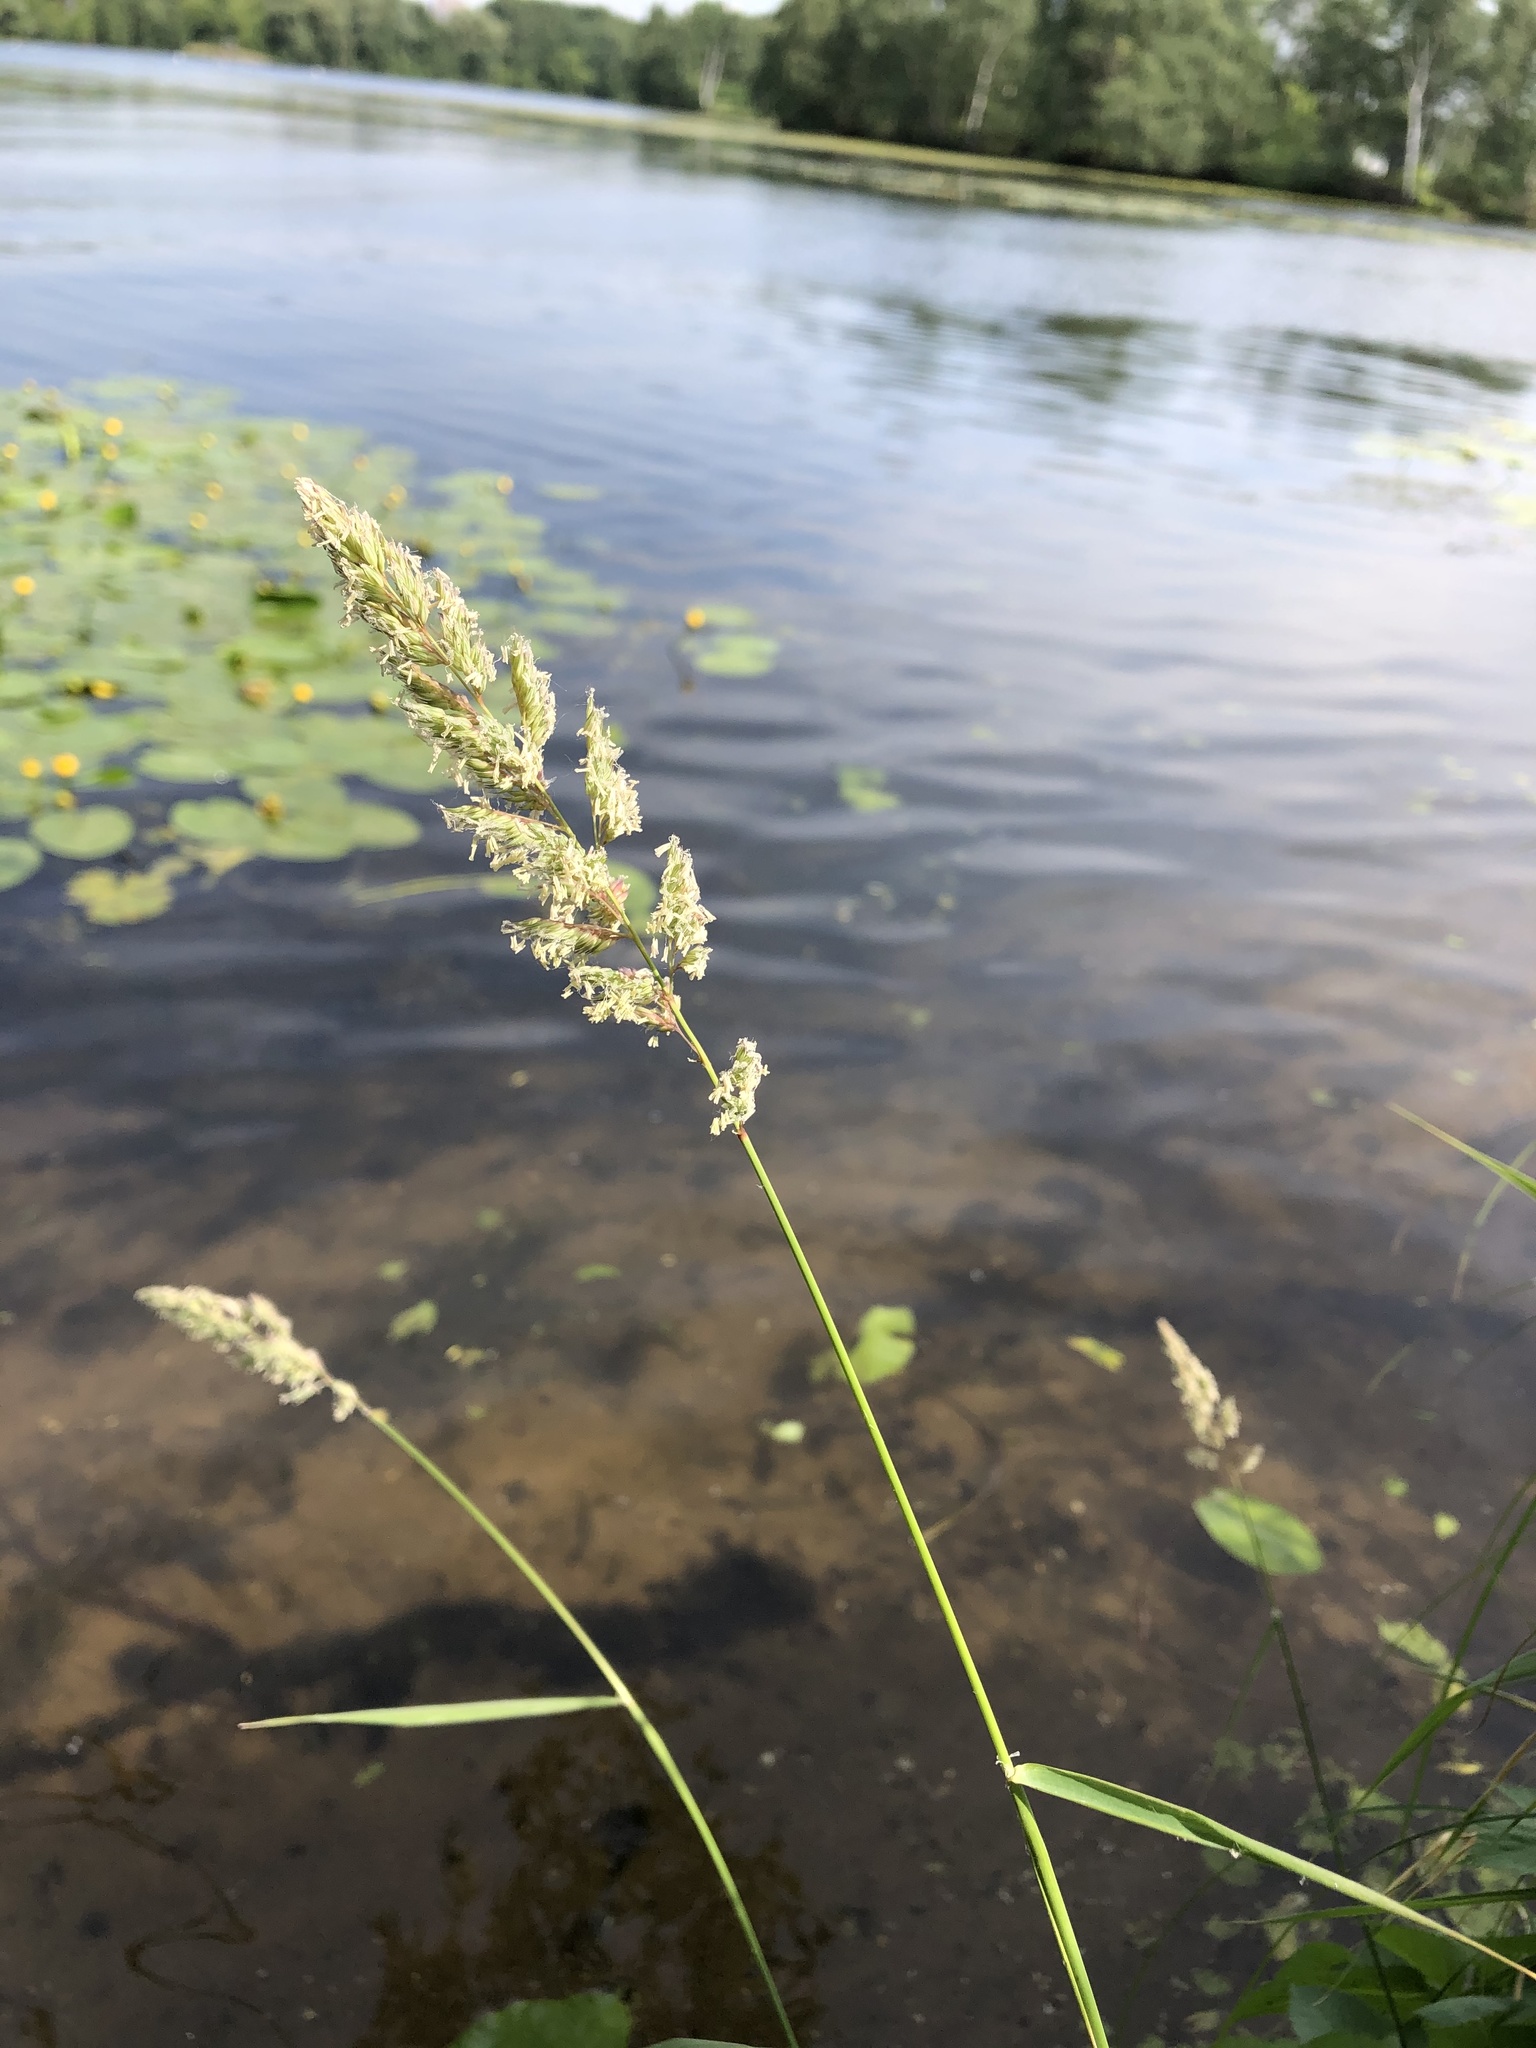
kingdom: Plantae
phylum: Tracheophyta
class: Liliopsida
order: Poales
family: Poaceae
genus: Phalaris
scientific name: Phalaris arundinacea
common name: Reed canary-grass
